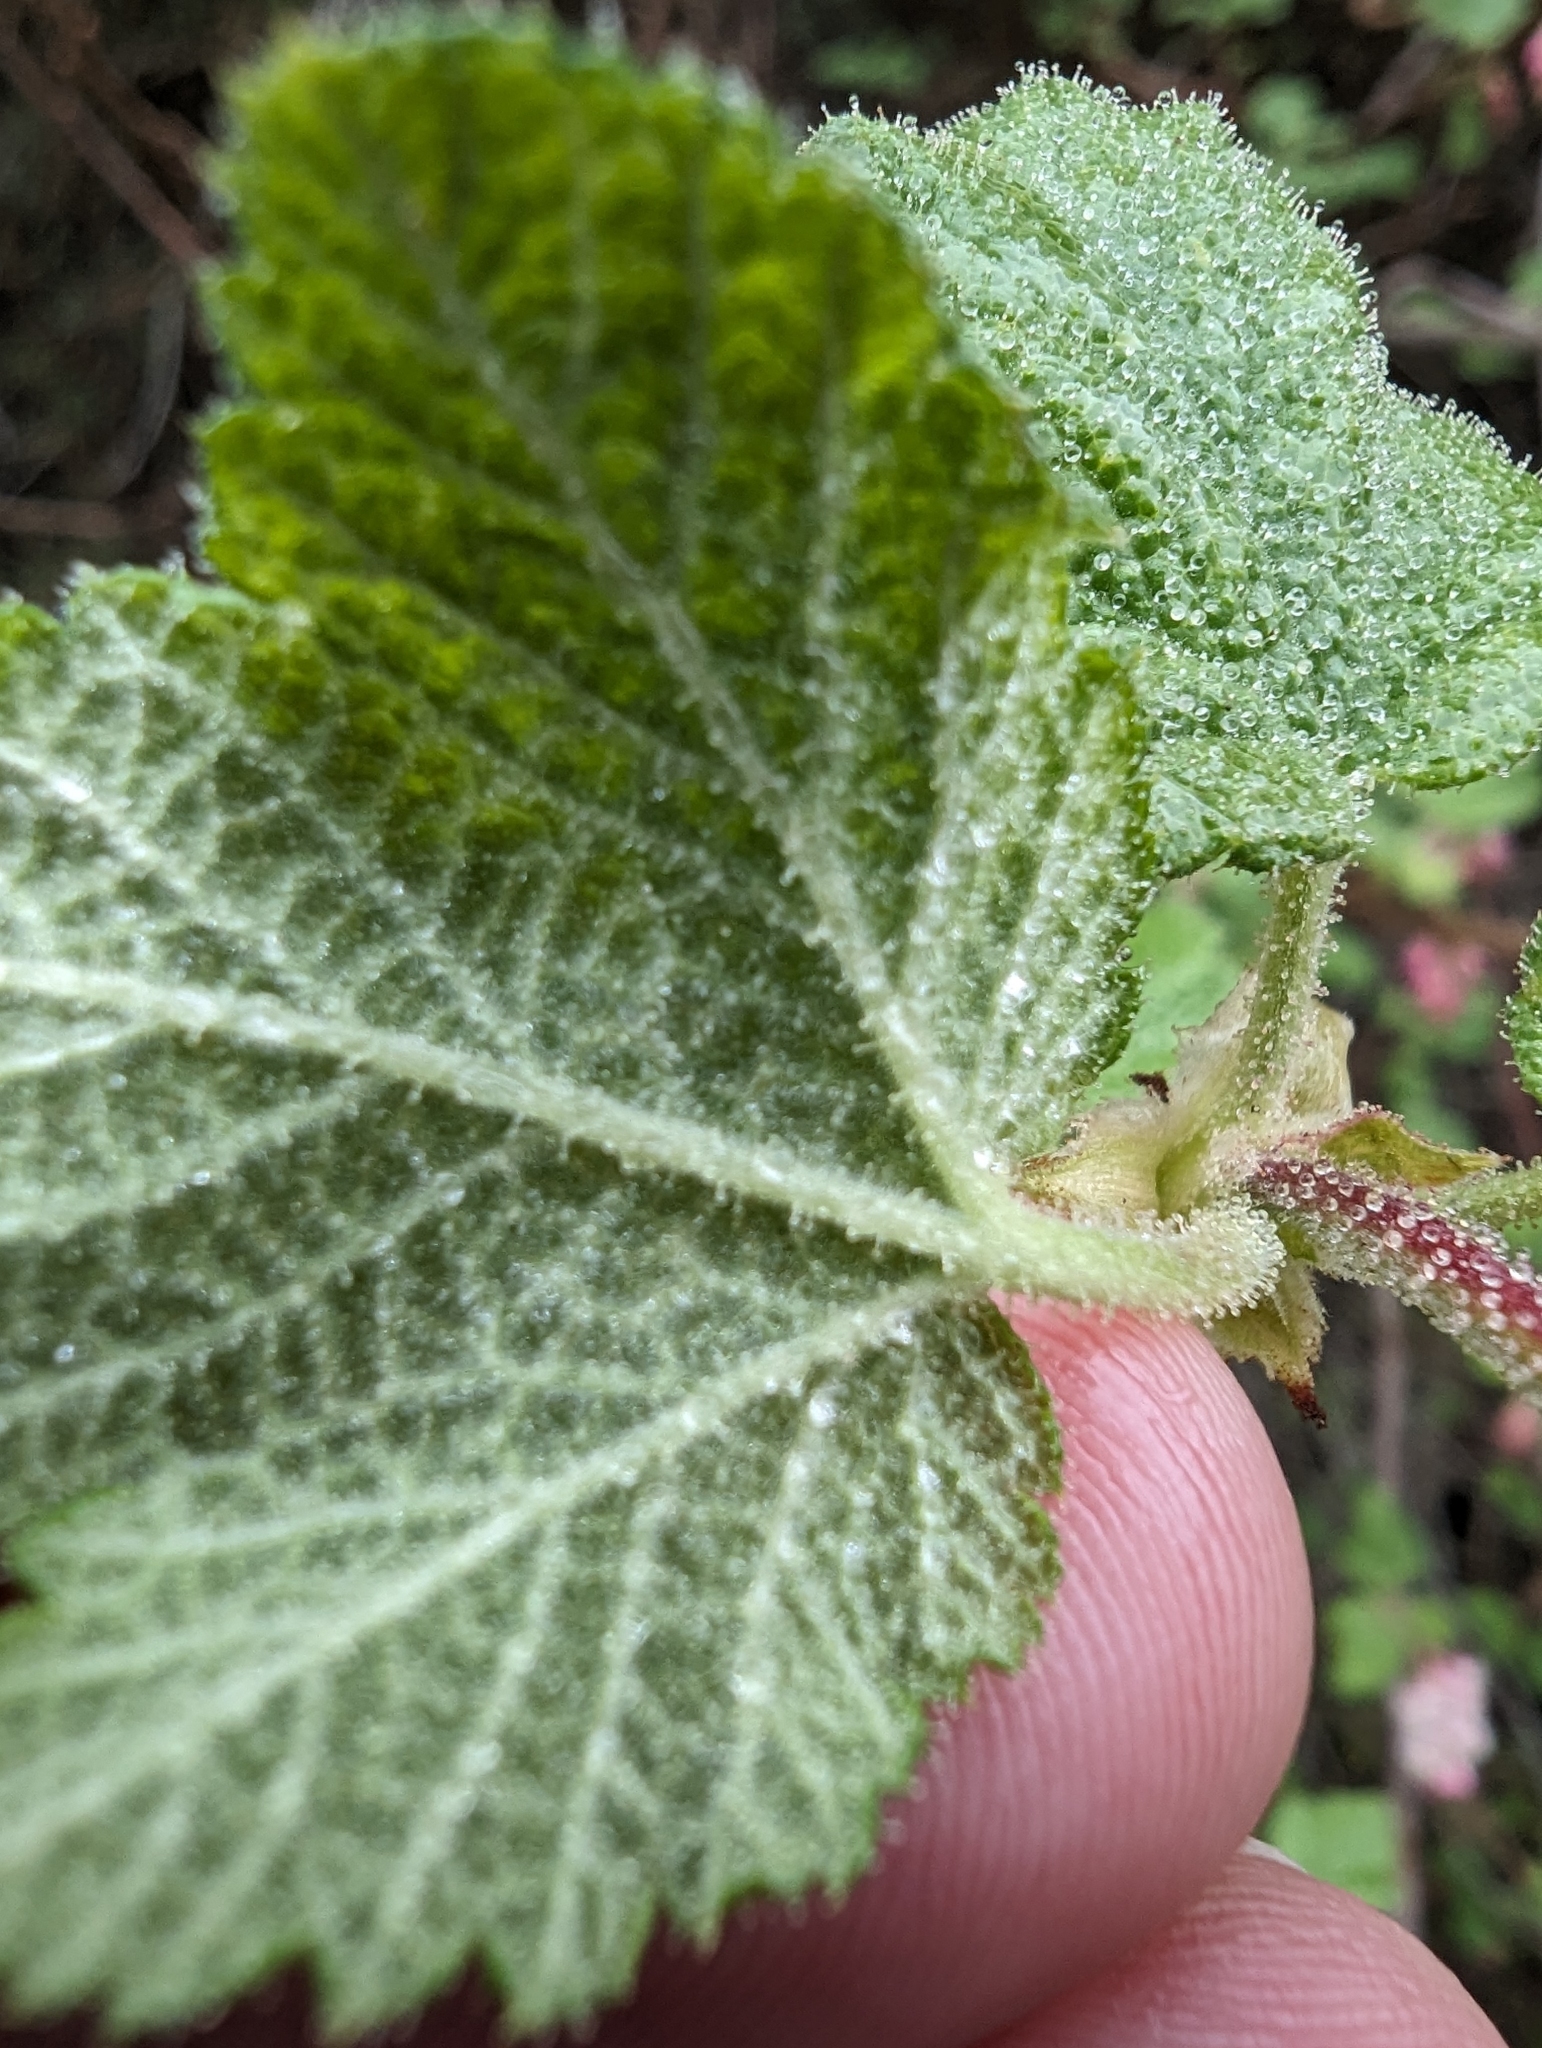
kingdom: Plantae
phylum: Tracheophyta
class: Magnoliopsida
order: Saxifragales
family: Grossulariaceae
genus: Ribes
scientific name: Ribes malvaceum
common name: Chaparral currant
